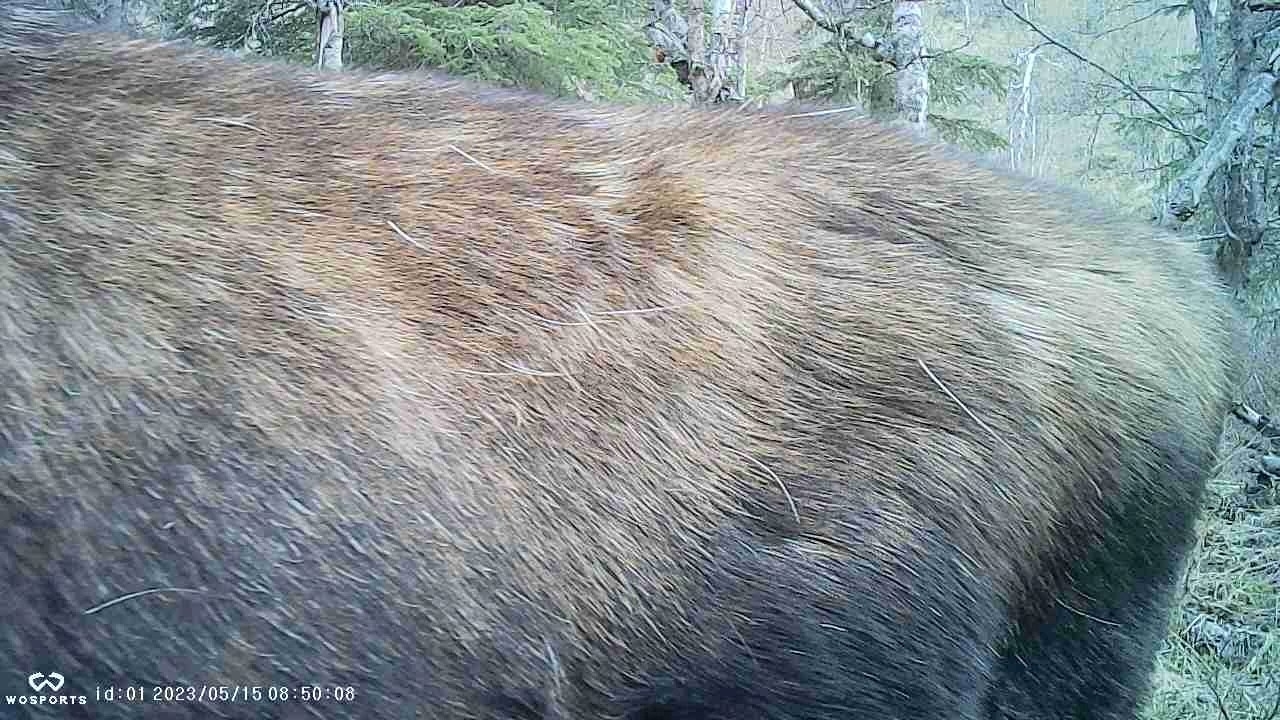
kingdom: Animalia
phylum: Chordata
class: Mammalia
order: Artiodactyla
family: Cervidae
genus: Alces
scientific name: Alces alces
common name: Moose
